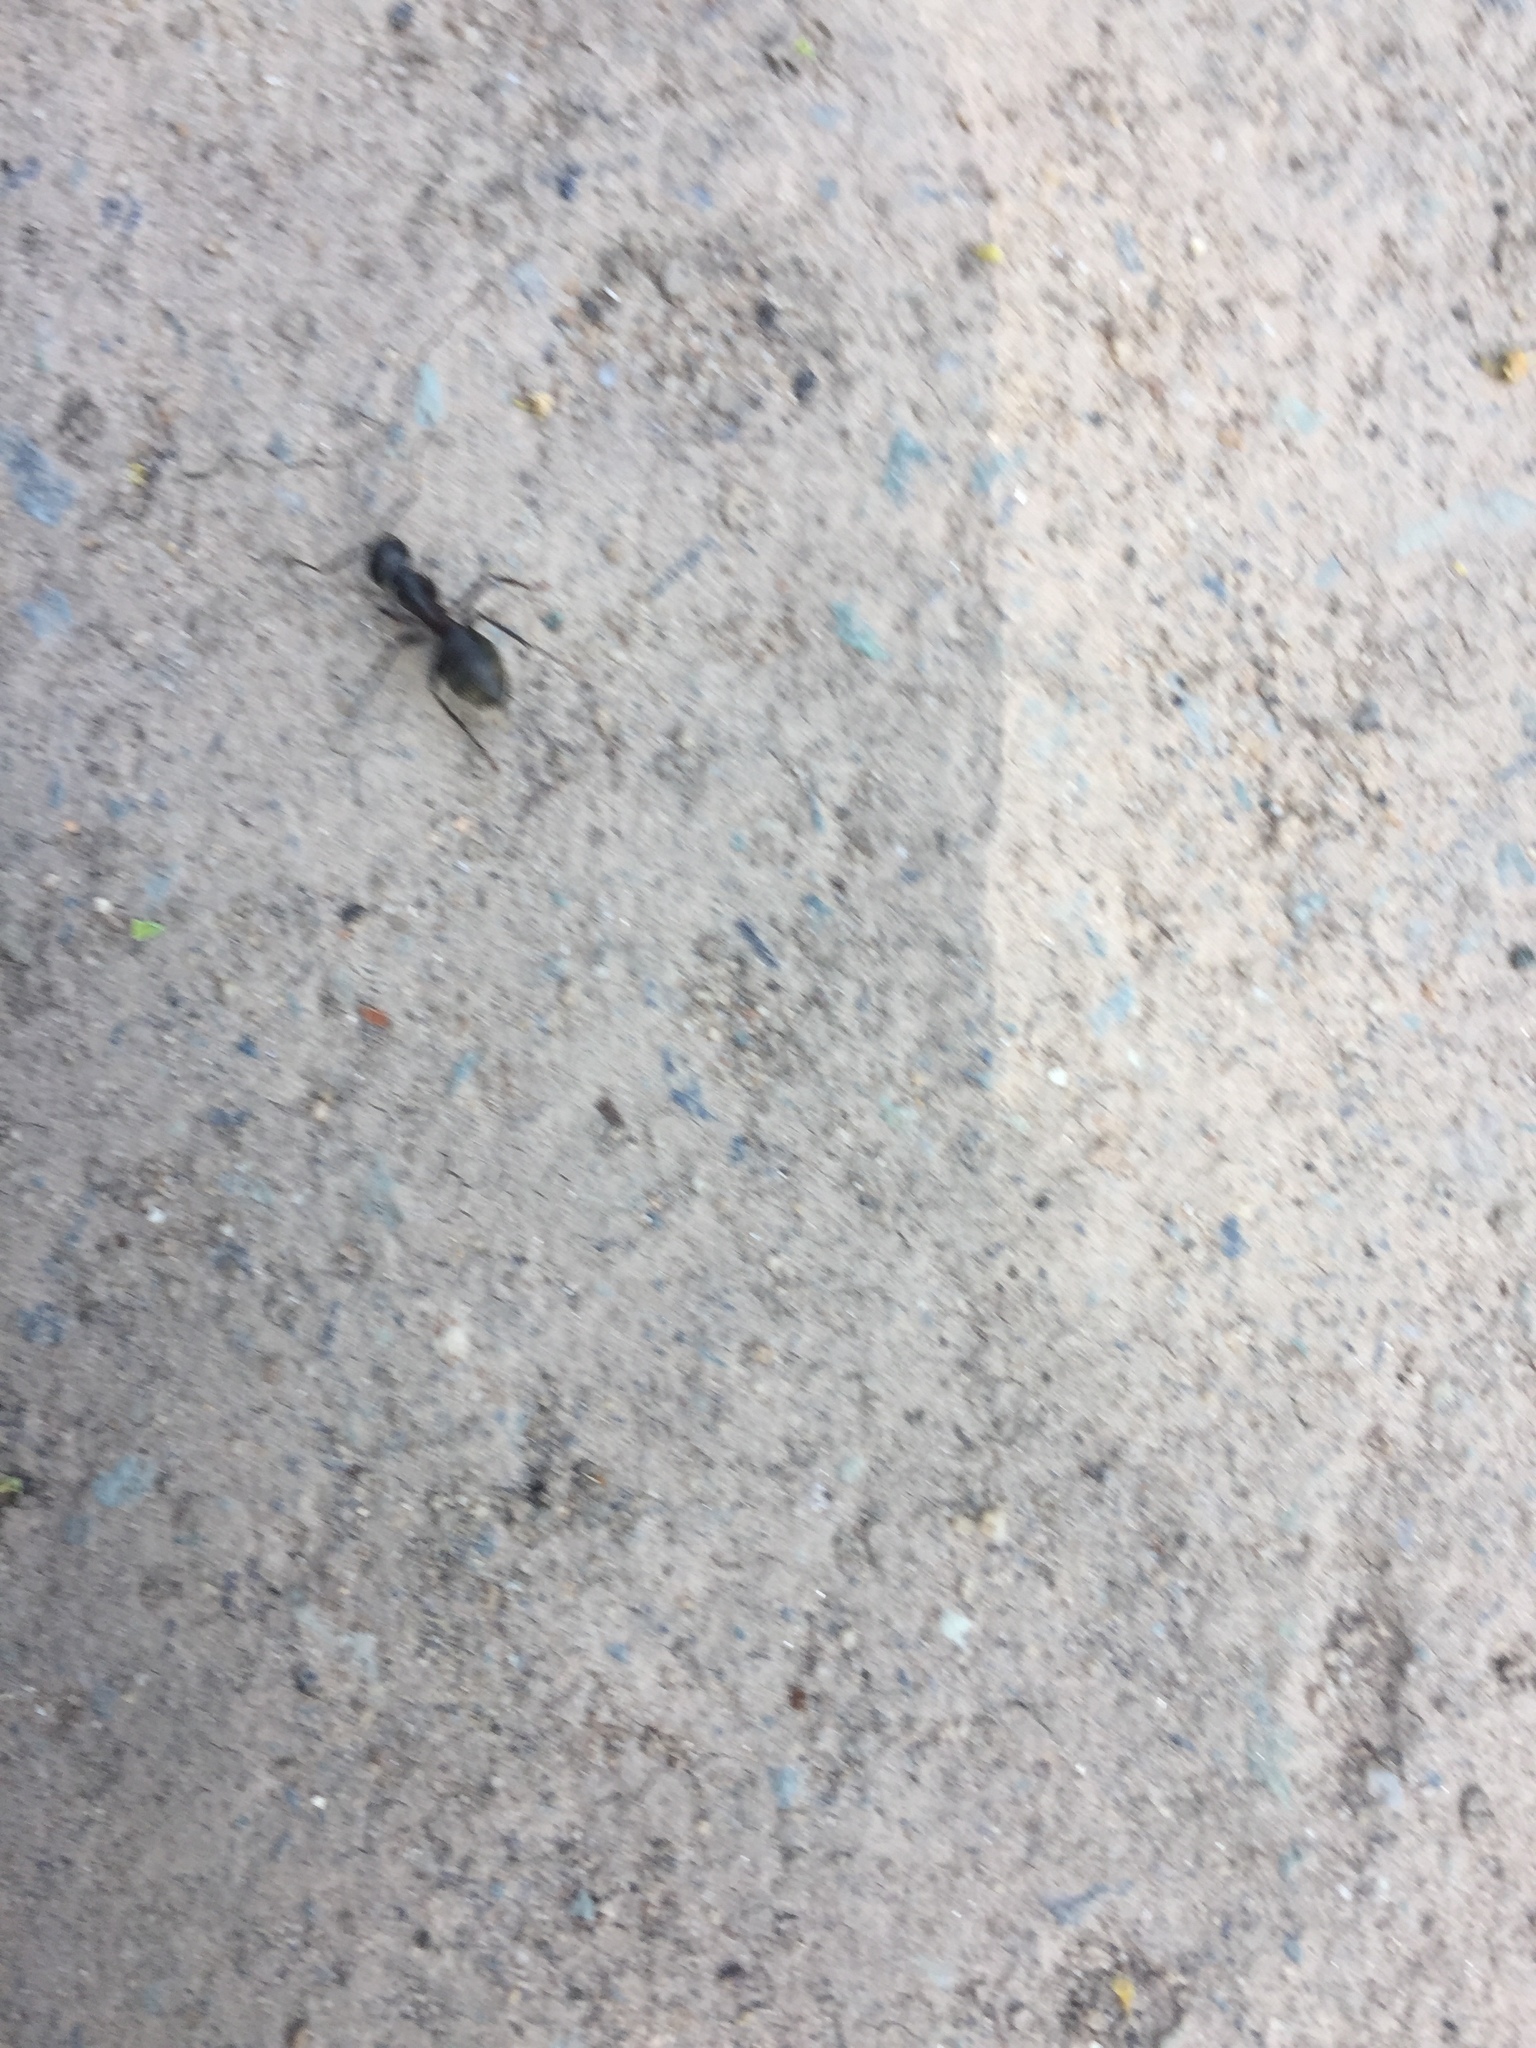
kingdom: Animalia
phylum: Arthropoda
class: Insecta
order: Hymenoptera
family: Formicidae
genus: Camponotus
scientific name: Camponotus pennsylvanicus
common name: Black carpenter ant
